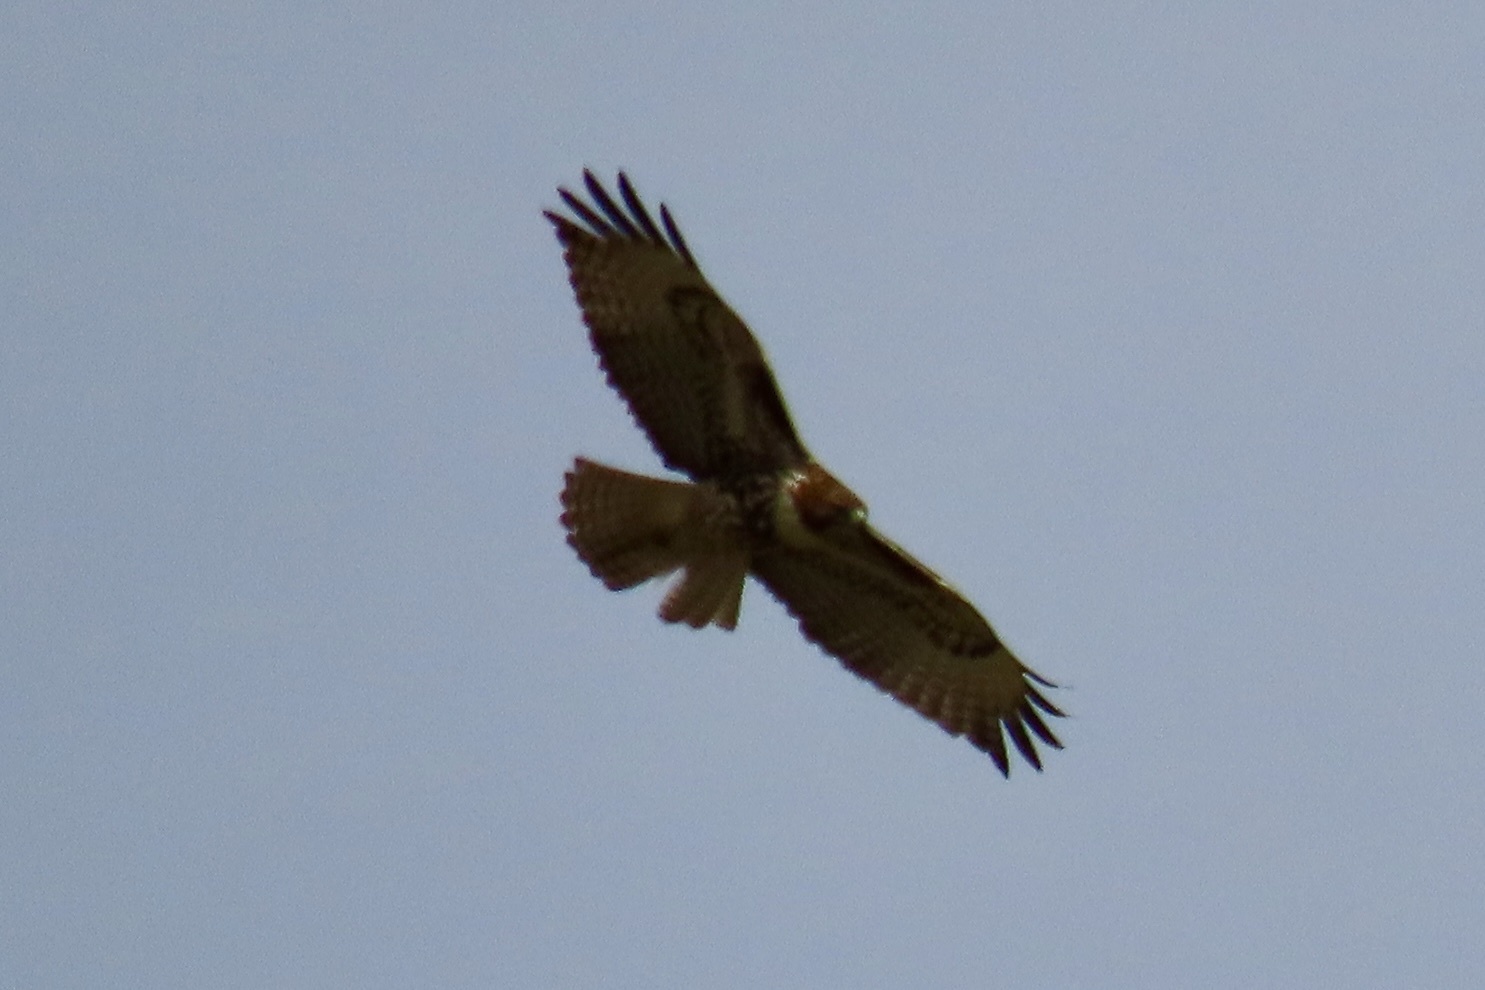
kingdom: Animalia
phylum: Chordata
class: Aves
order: Accipitriformes
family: Accipitridae
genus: Buteo
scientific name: Buteo jamaicensis
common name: Red-tailed hawk
